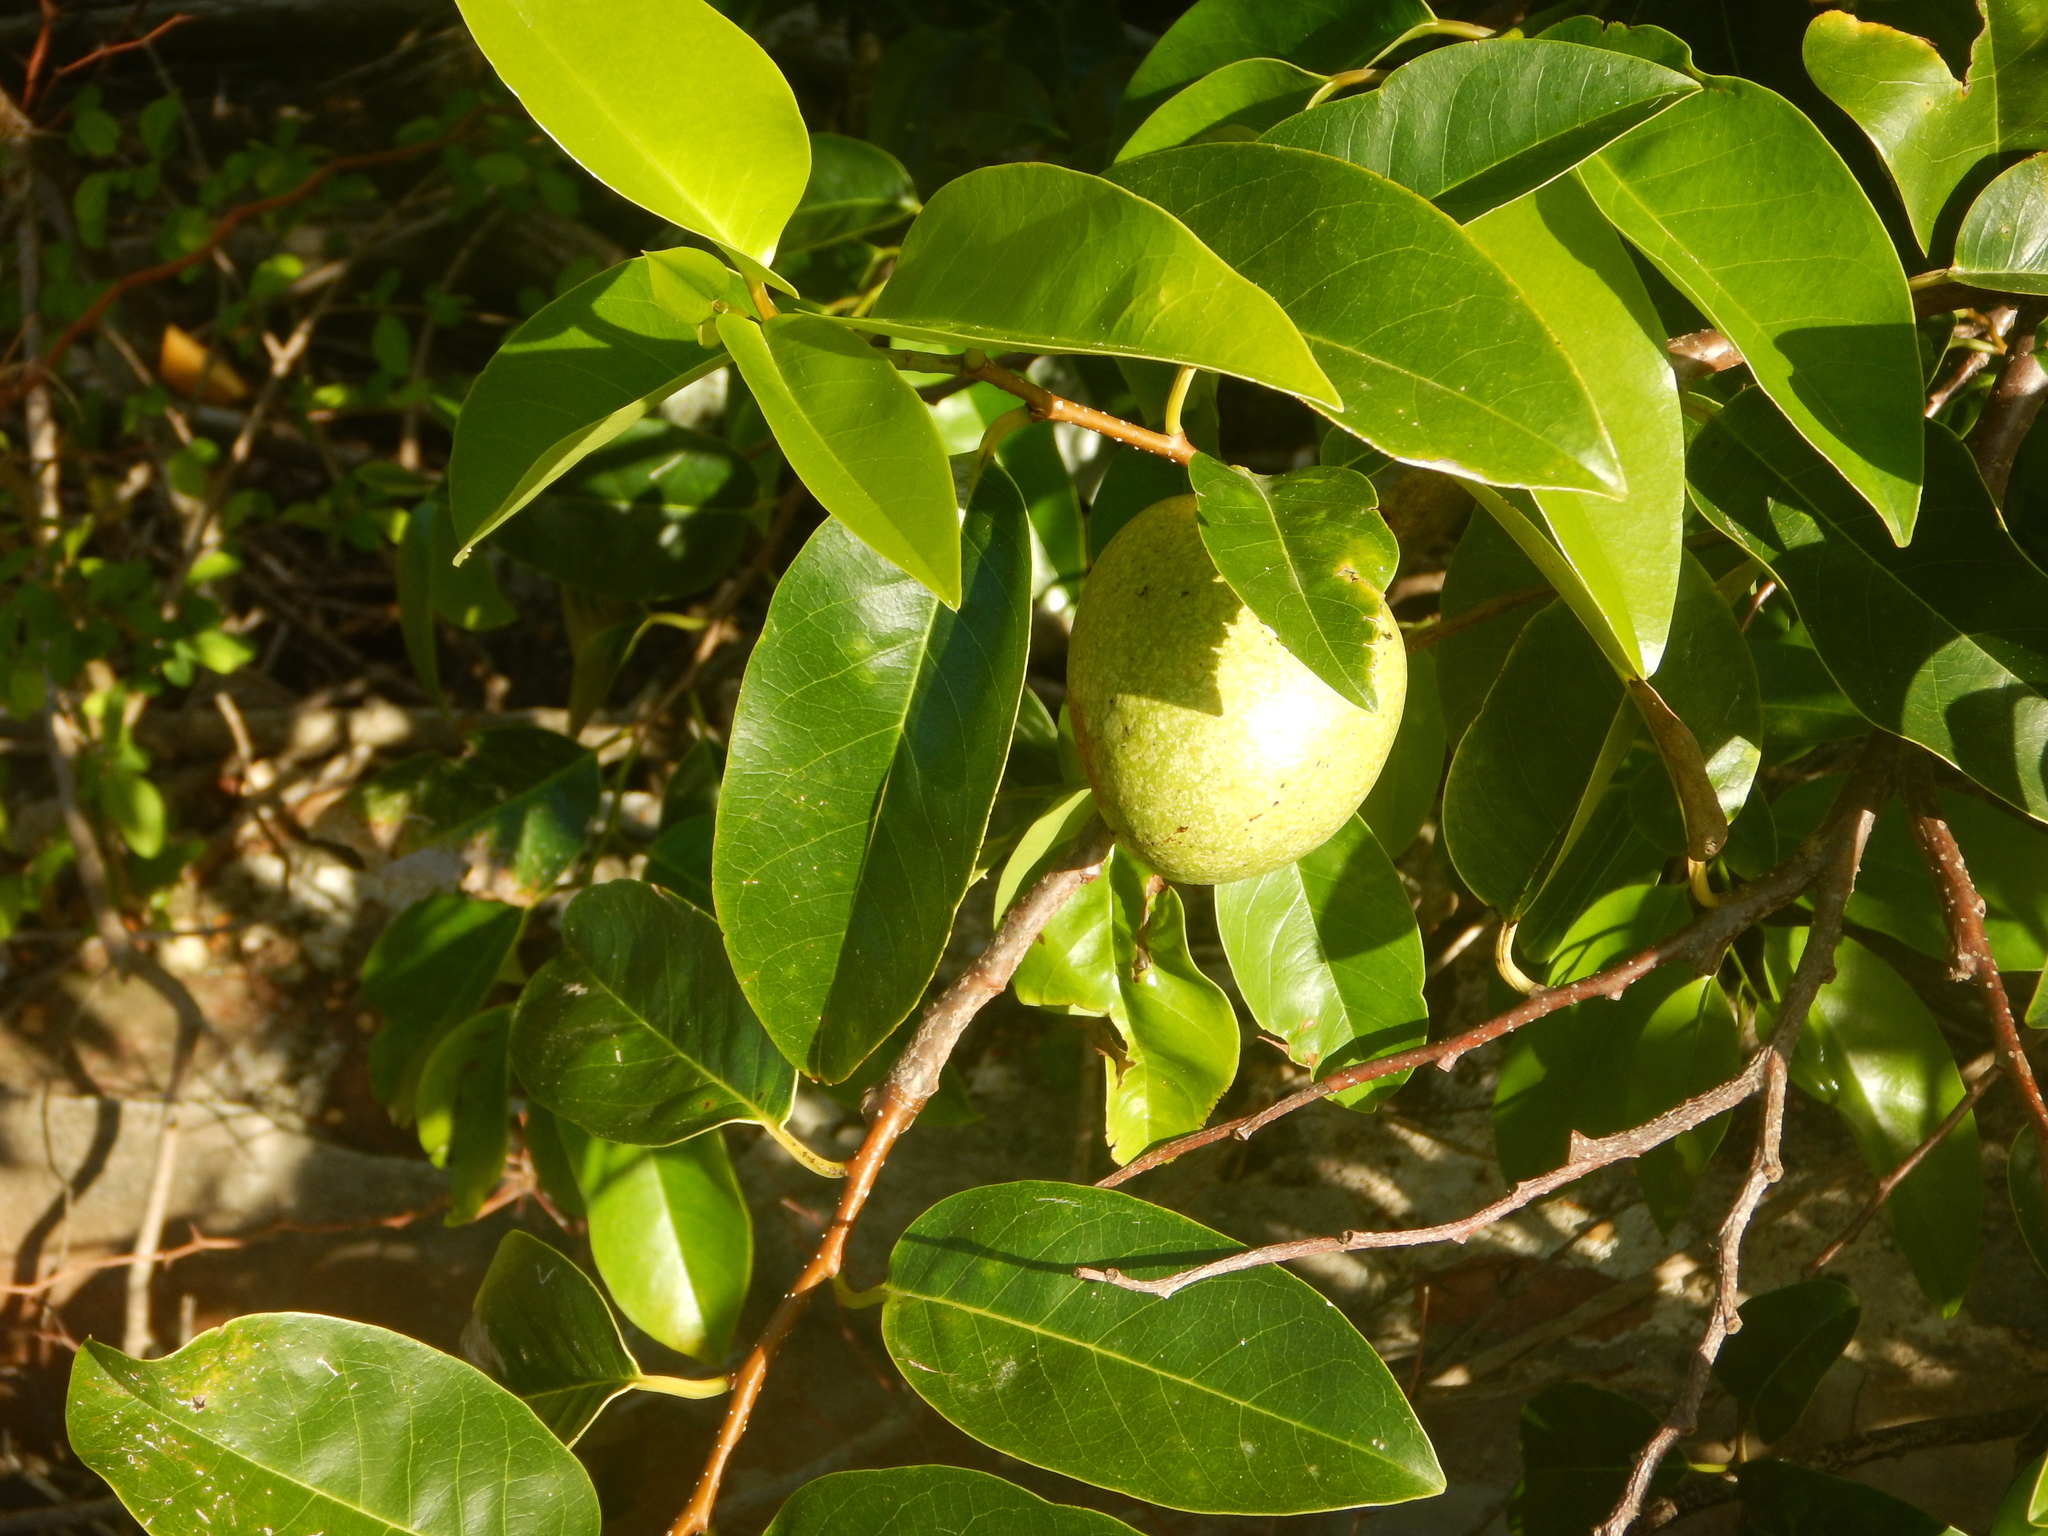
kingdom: Plantae
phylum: Tracheophyta
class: Magnoliopsida
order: Magnoliales
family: Annonaceae
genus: Annona
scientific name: Annona glabra
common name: Monkey apple
